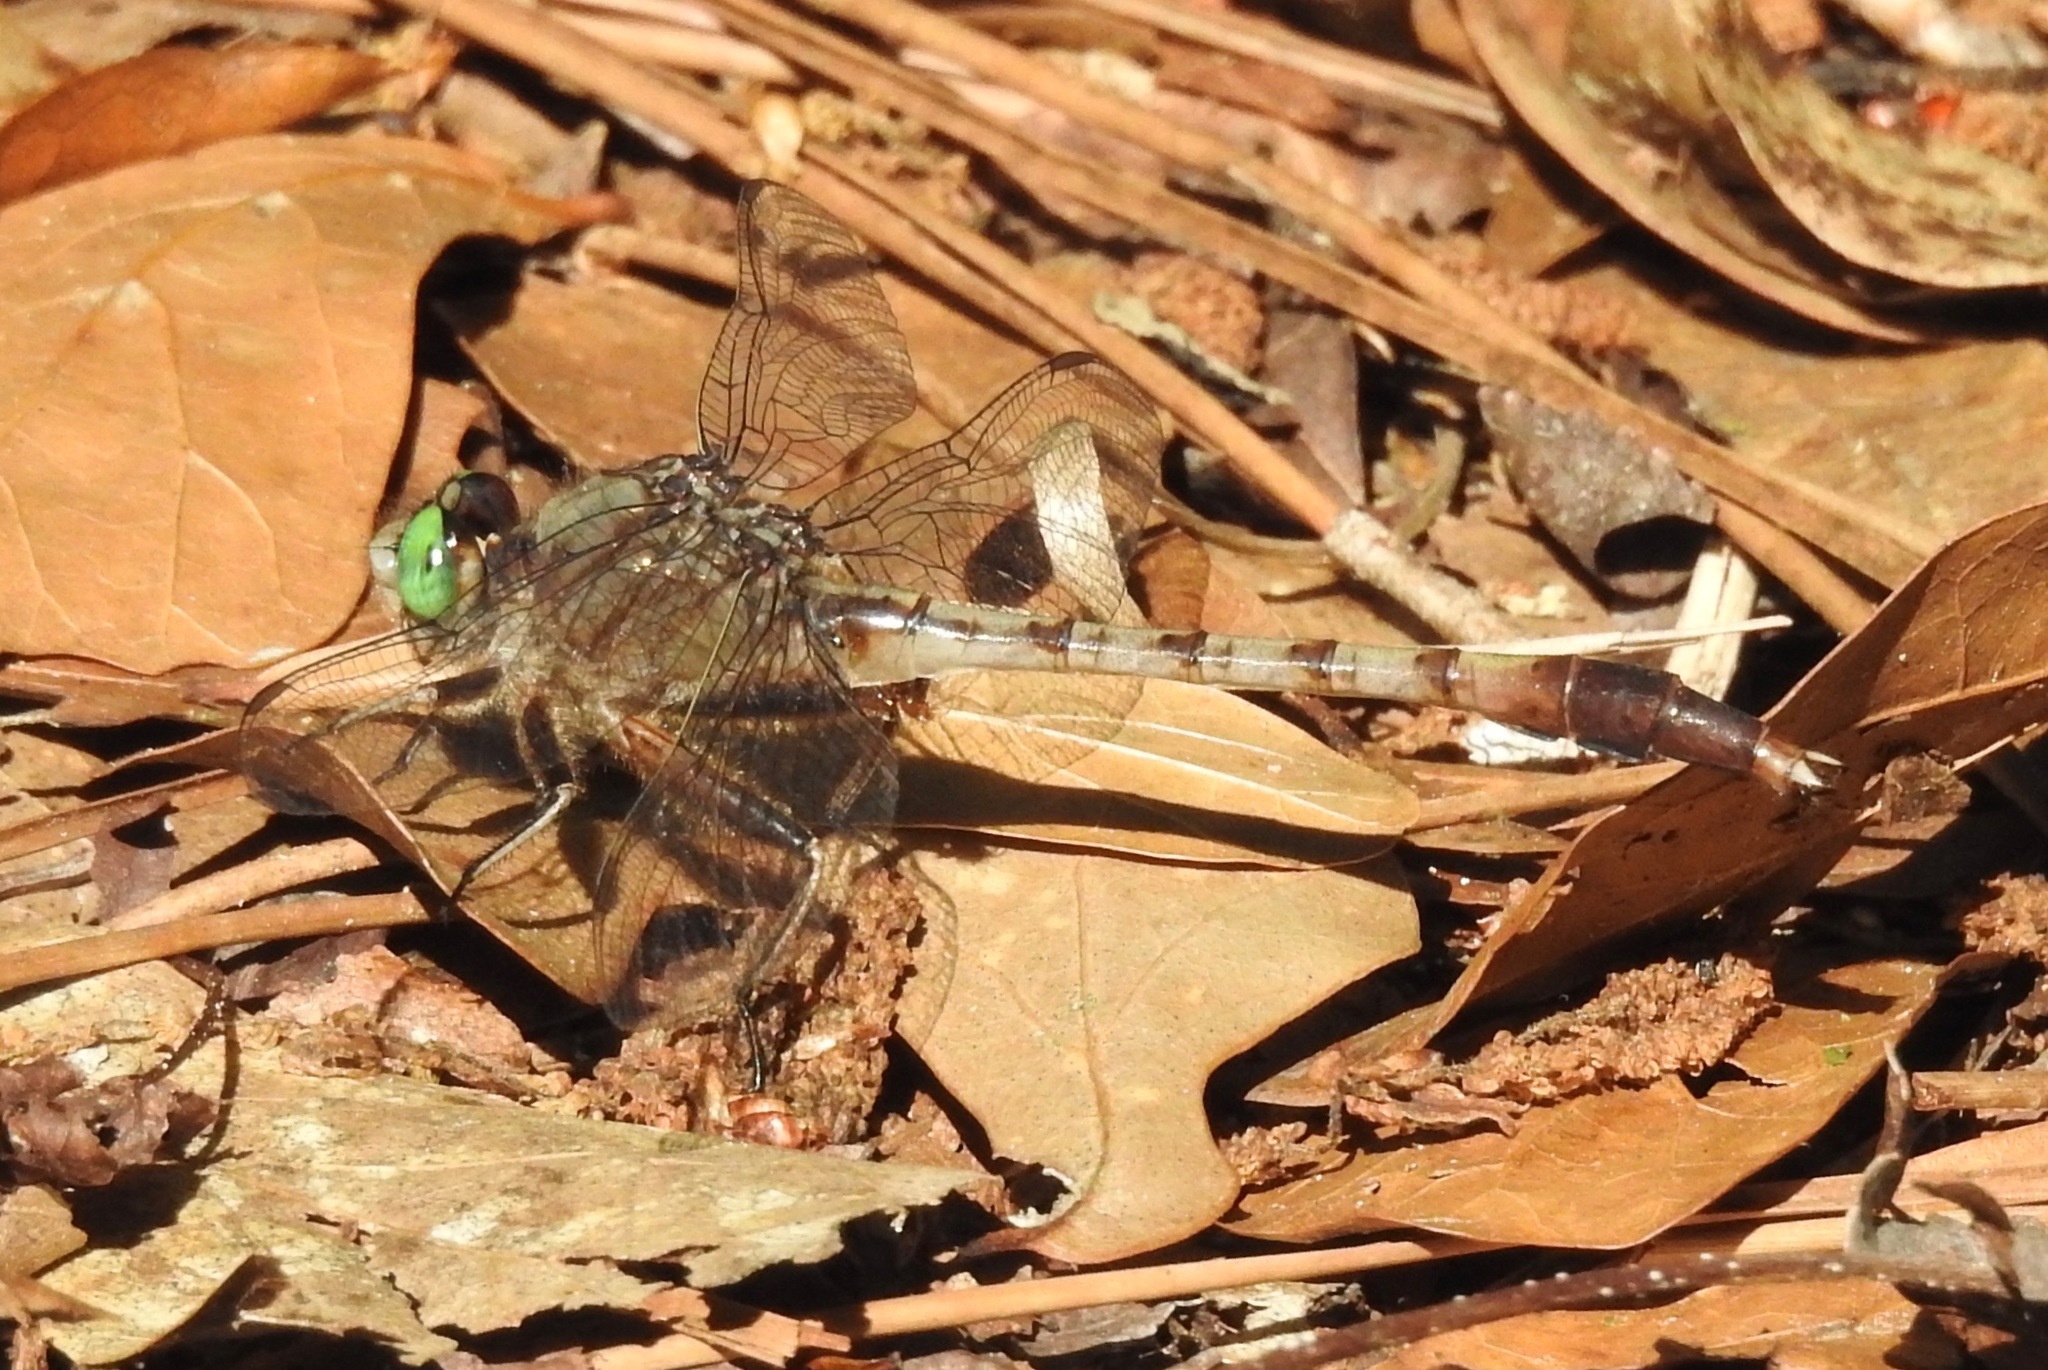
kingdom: Animalia
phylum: Arthropoda
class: Insecta
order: Odonata
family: Gomphidae
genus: Arigomphus
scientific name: Arigomphus pallidus
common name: Gray-green clubtail
